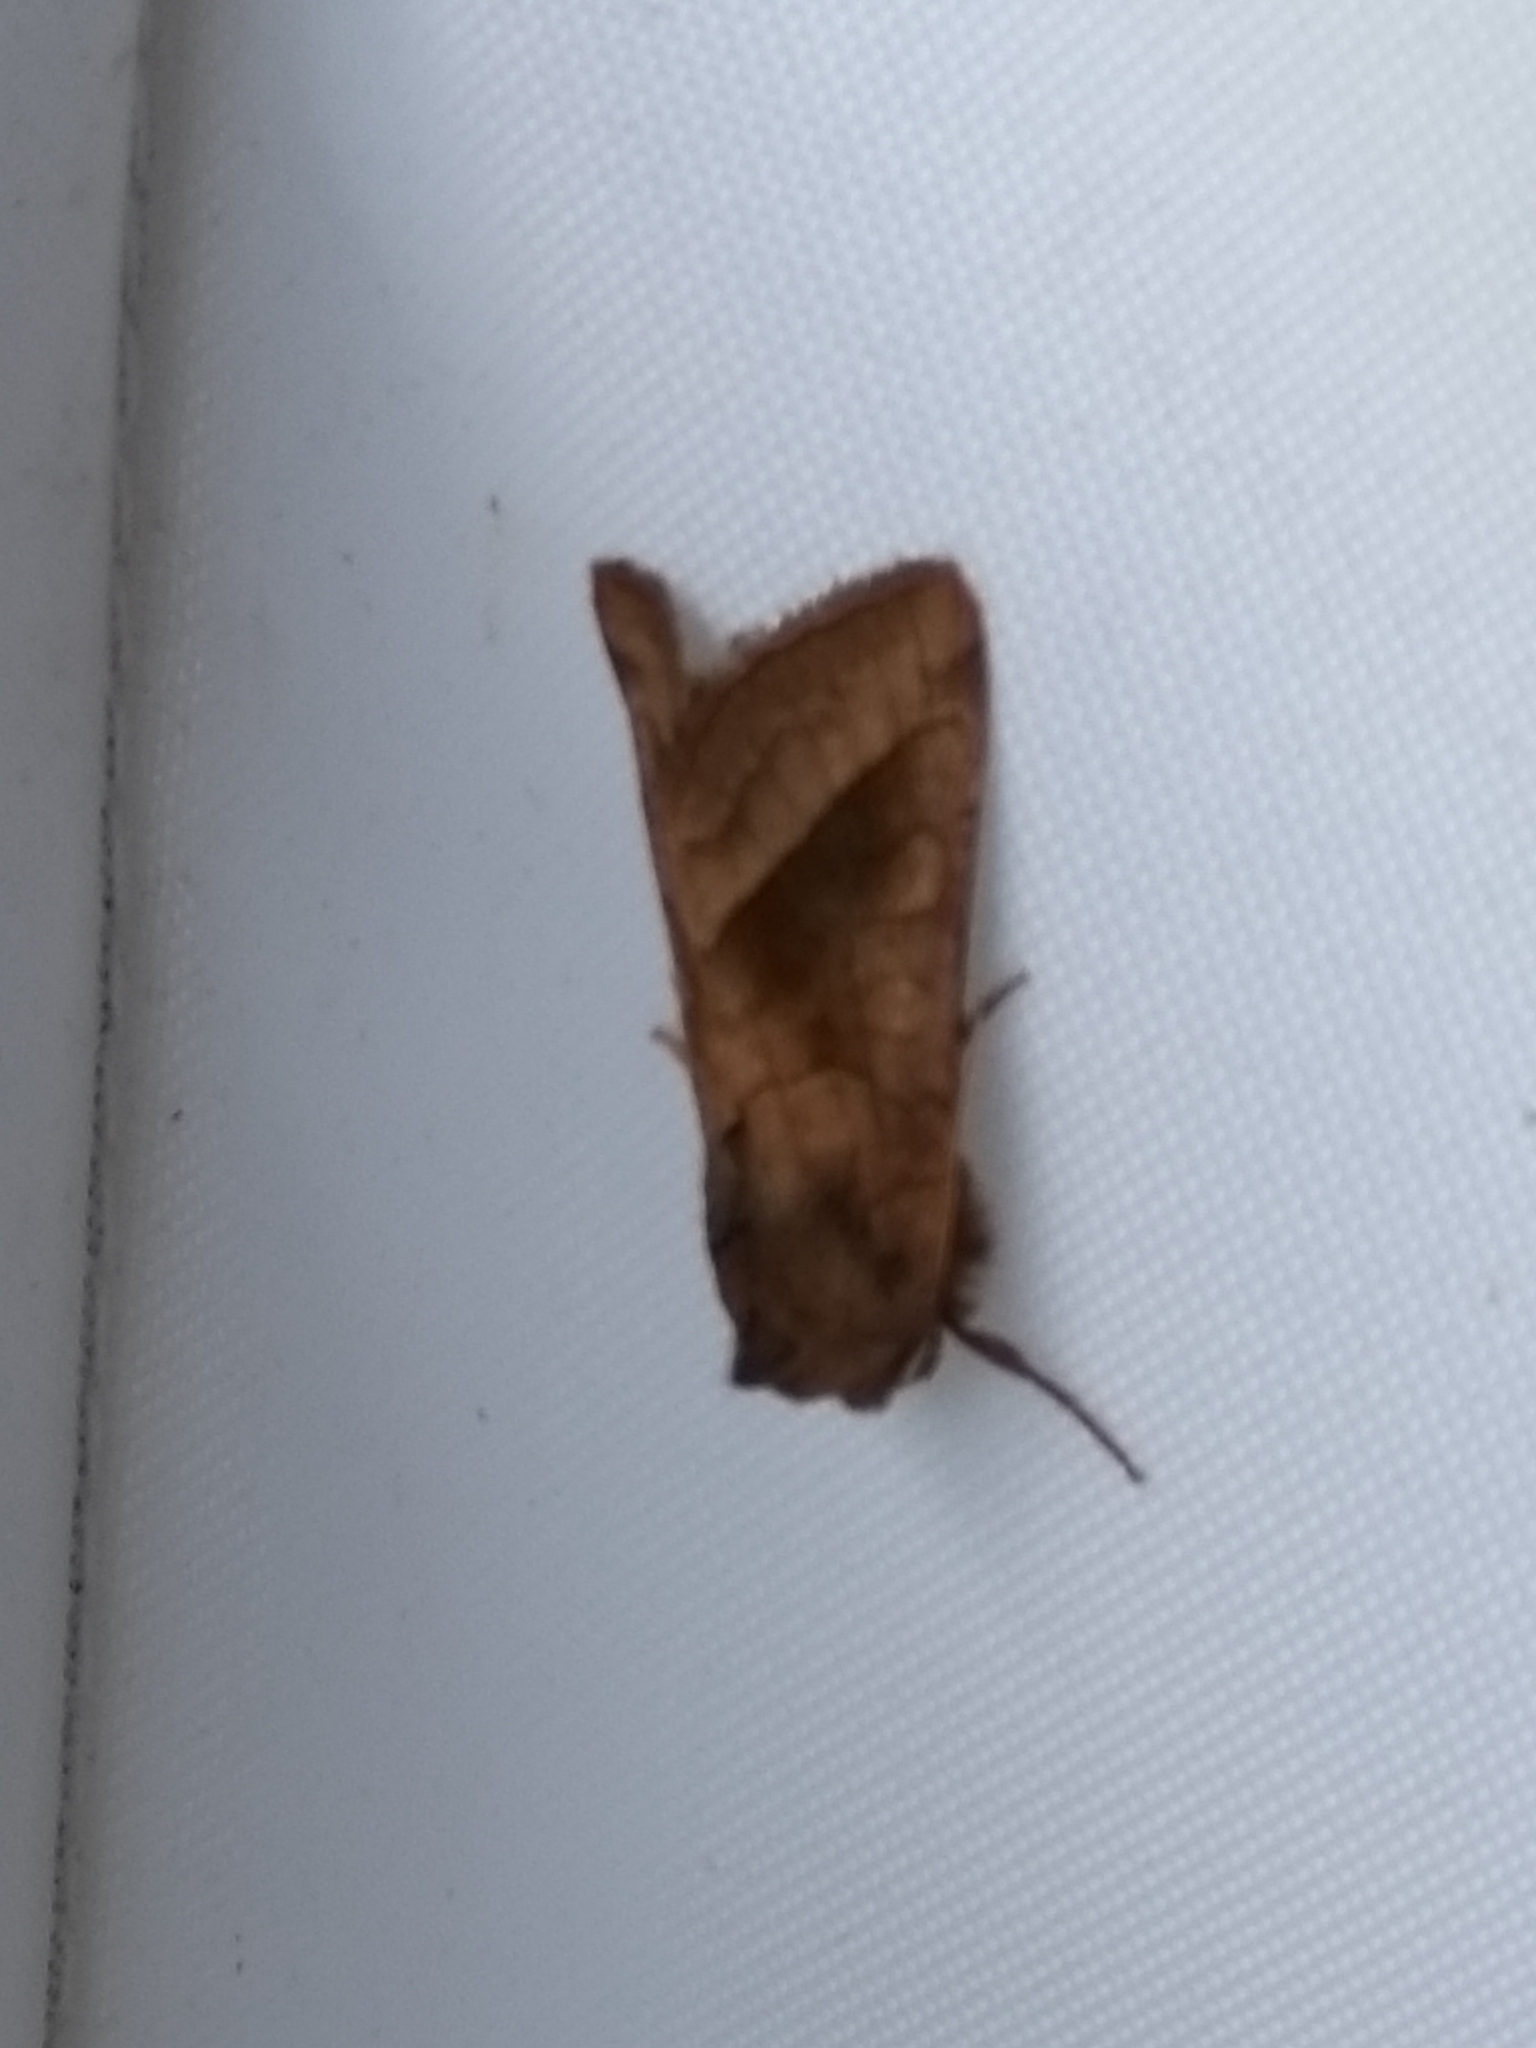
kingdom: Animalia
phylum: Arthropoda
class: Insecta
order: Lepidoptera
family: Noctuidae
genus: Hydraecia
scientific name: Hydraecia micacea
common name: Rosy rustic
